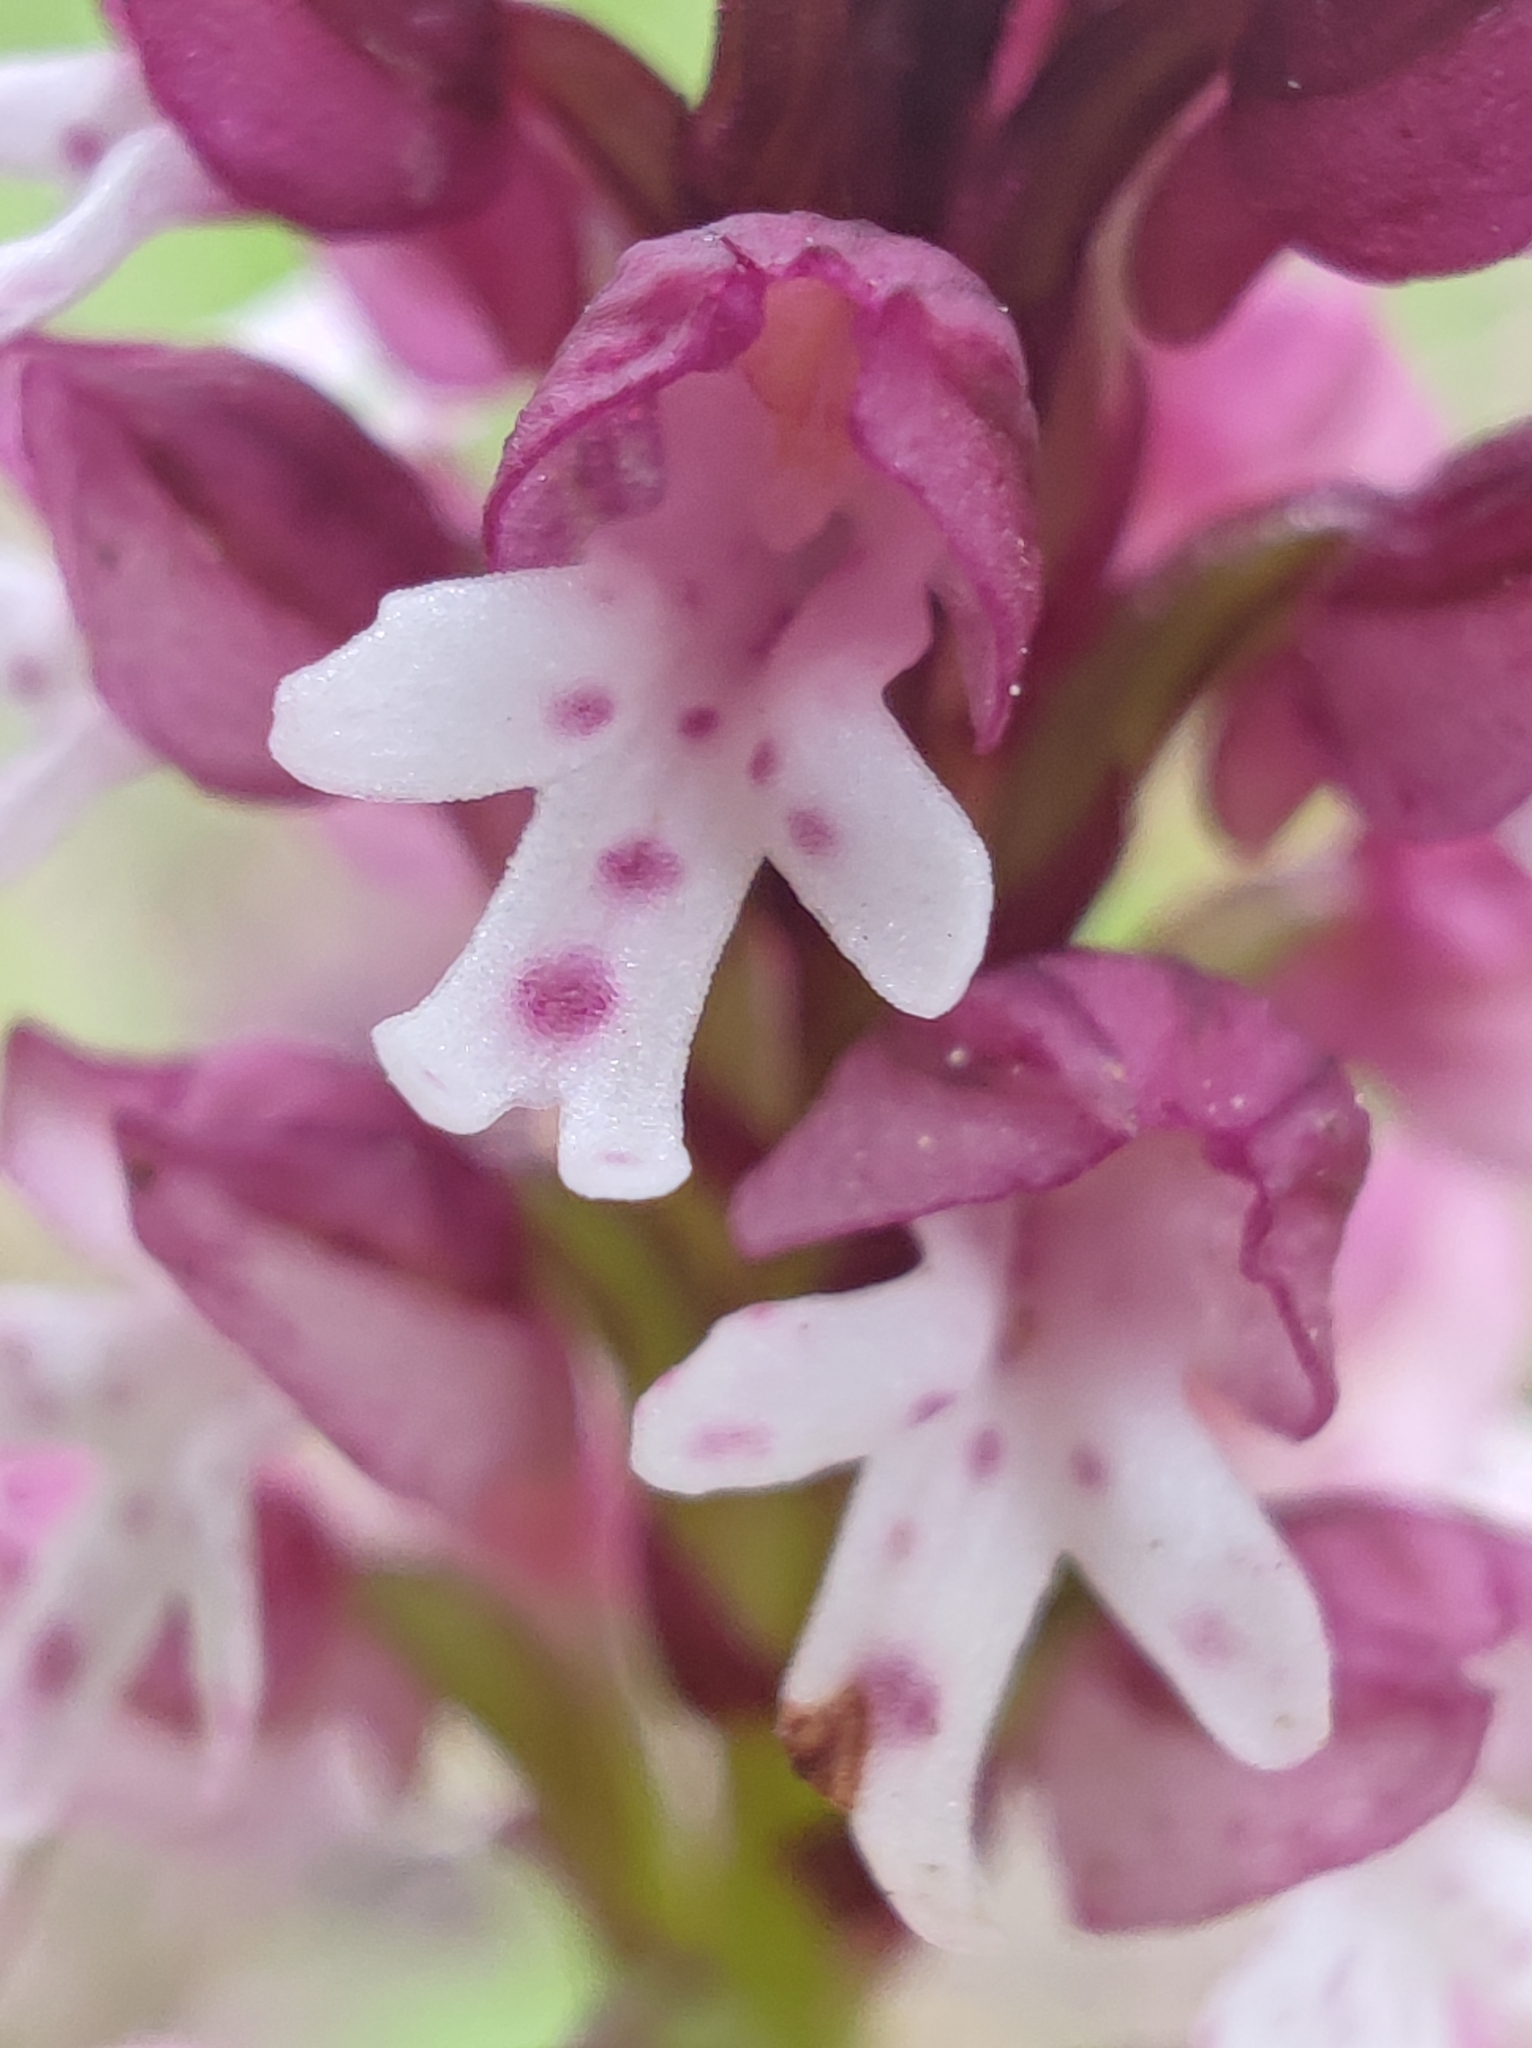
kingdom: Plantae
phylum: Tracheophyta
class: Liliopsida
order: Asparagales
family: Orchidaceae
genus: Neotinea
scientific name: Neotinea ustulata
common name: Burnt orchid
